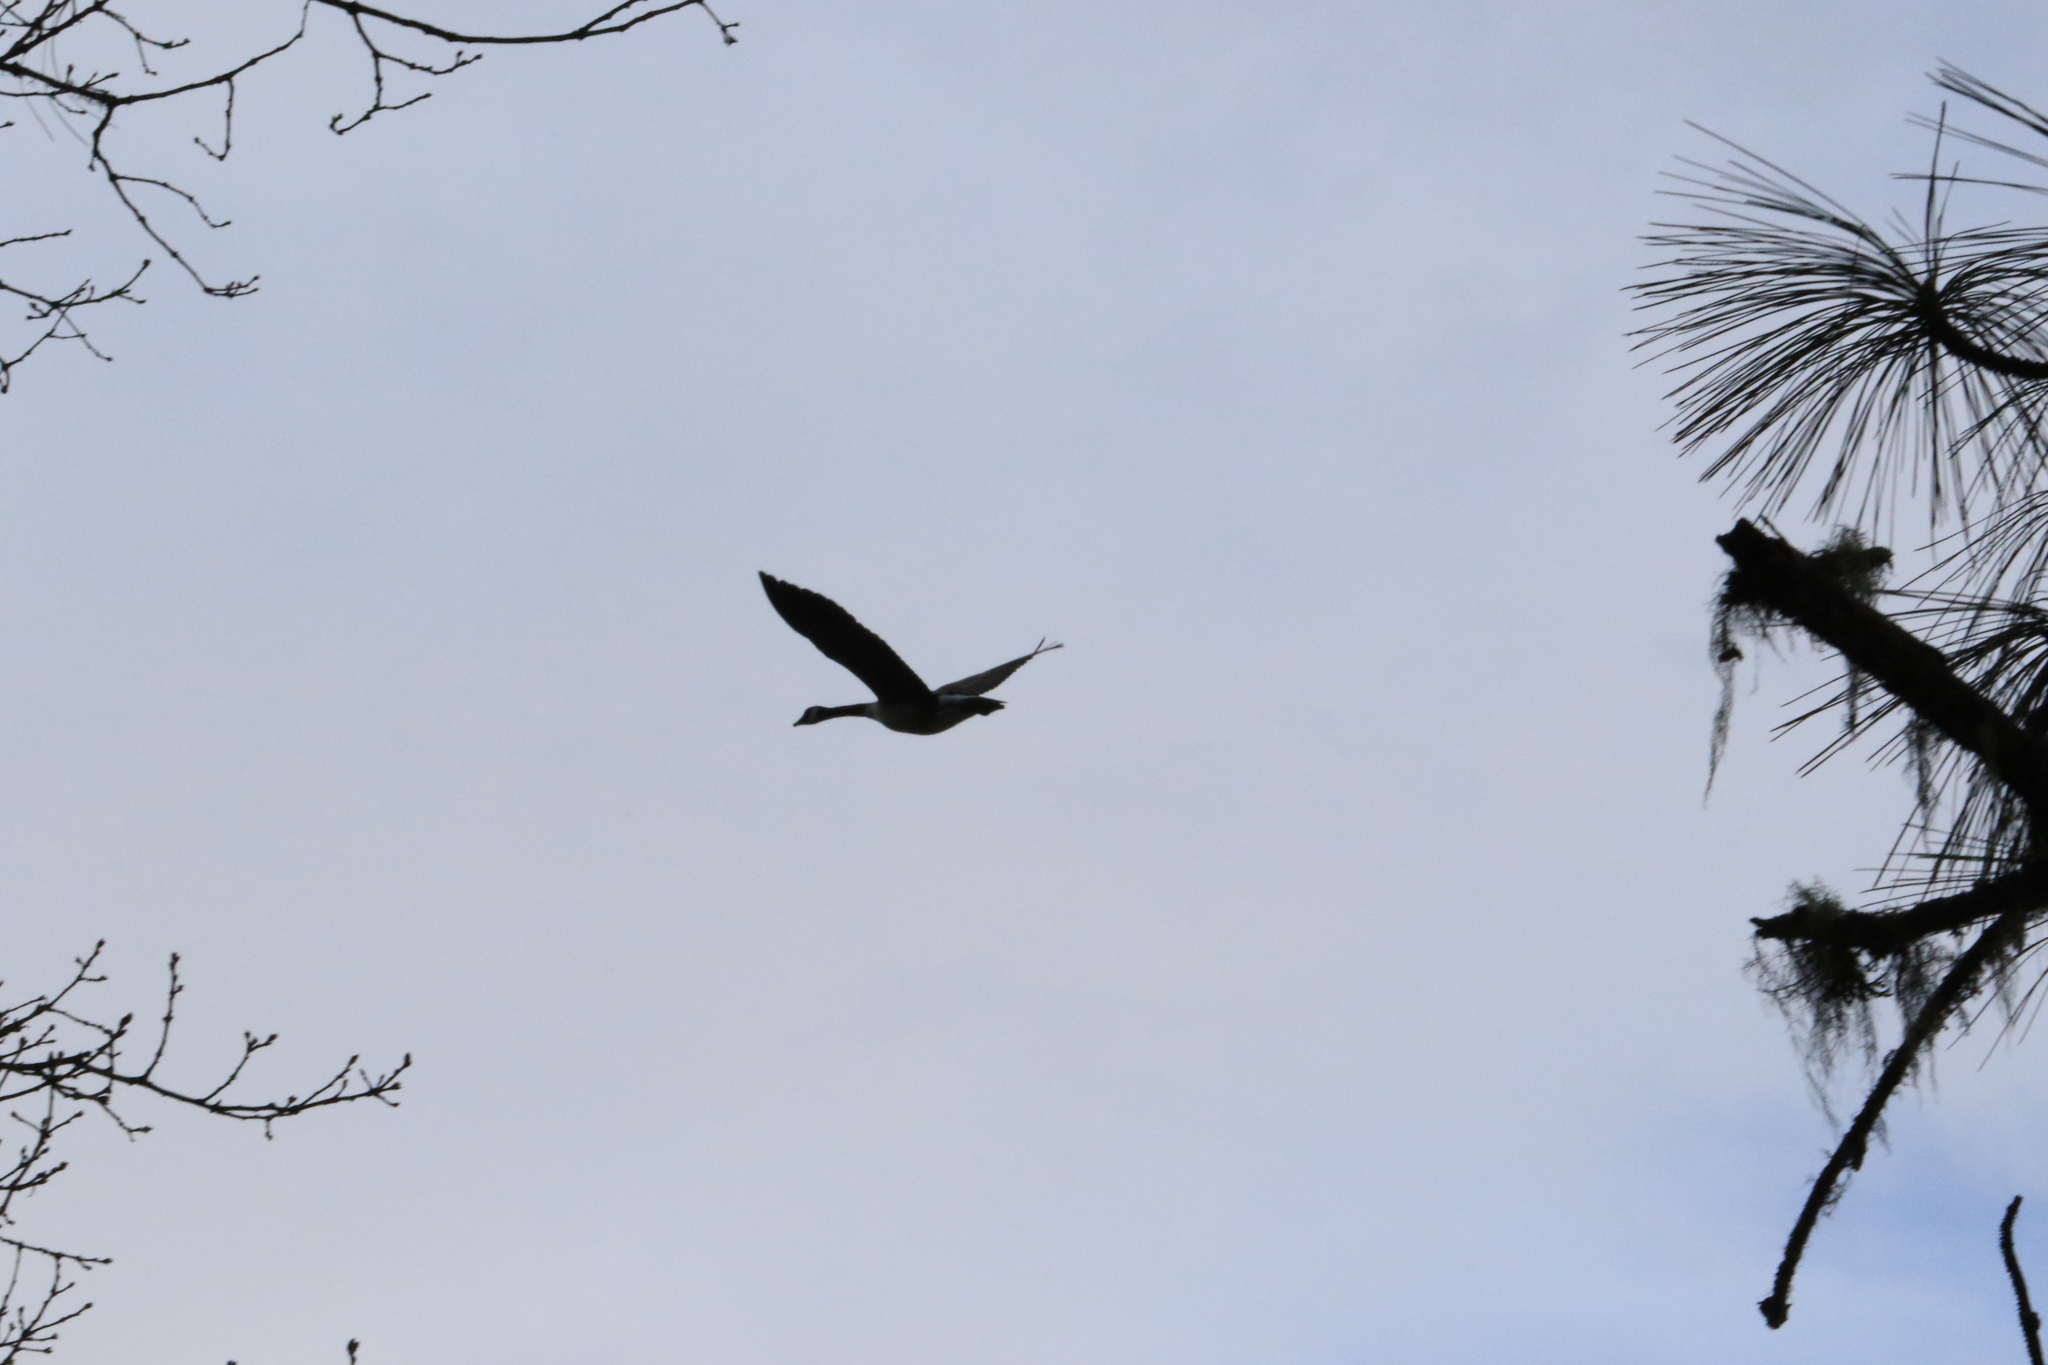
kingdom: Animalia
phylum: Chordata
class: Aves
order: Anseriformes
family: Anatidae
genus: Branta
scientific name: Branta canadensis
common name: Canada goose
